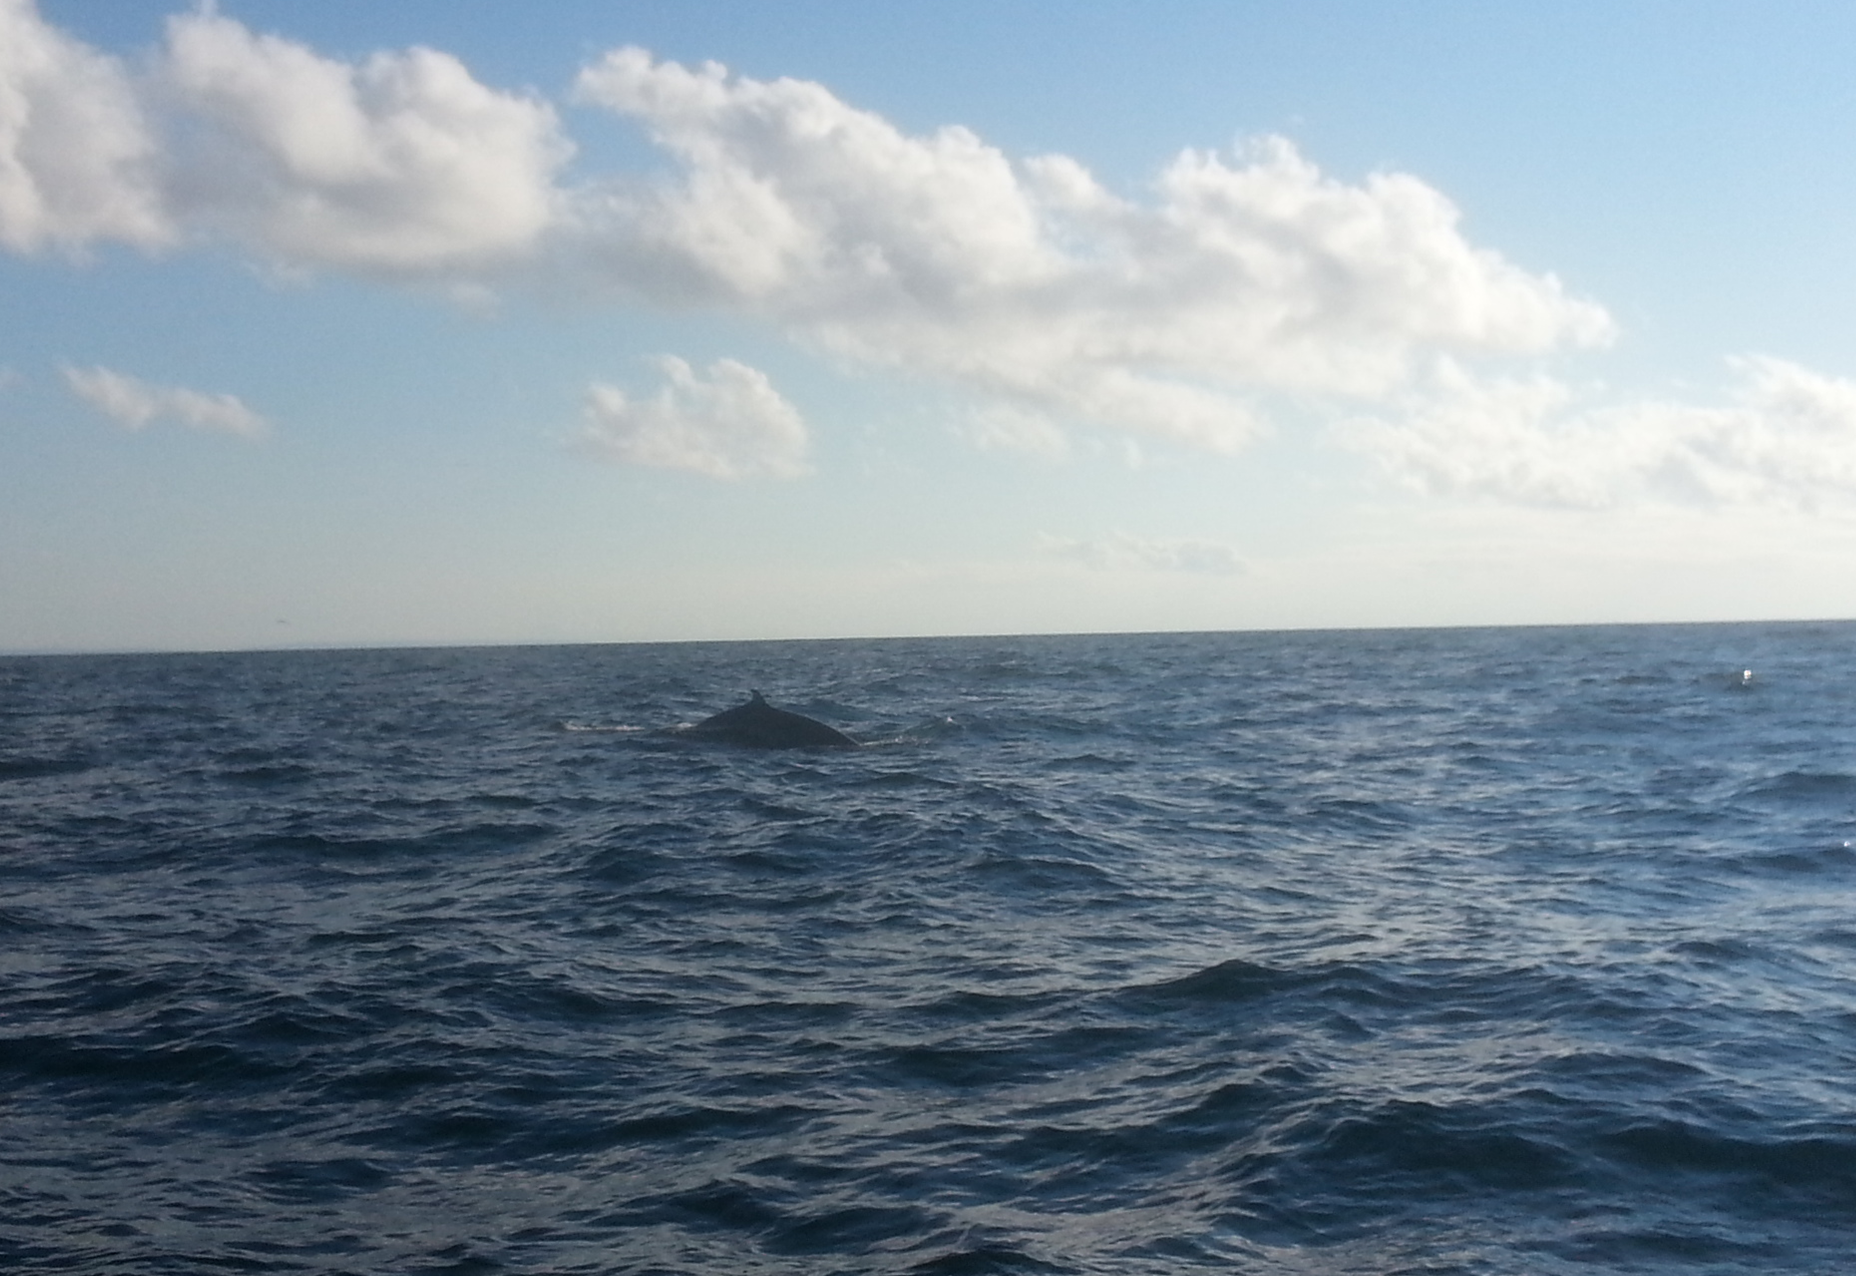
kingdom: Animalia
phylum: Chordata
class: Mammalia
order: Cetacea
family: Balaenopteridae
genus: Balaenoptera
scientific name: Balaenoptera acutorostrata
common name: Common minke whale
